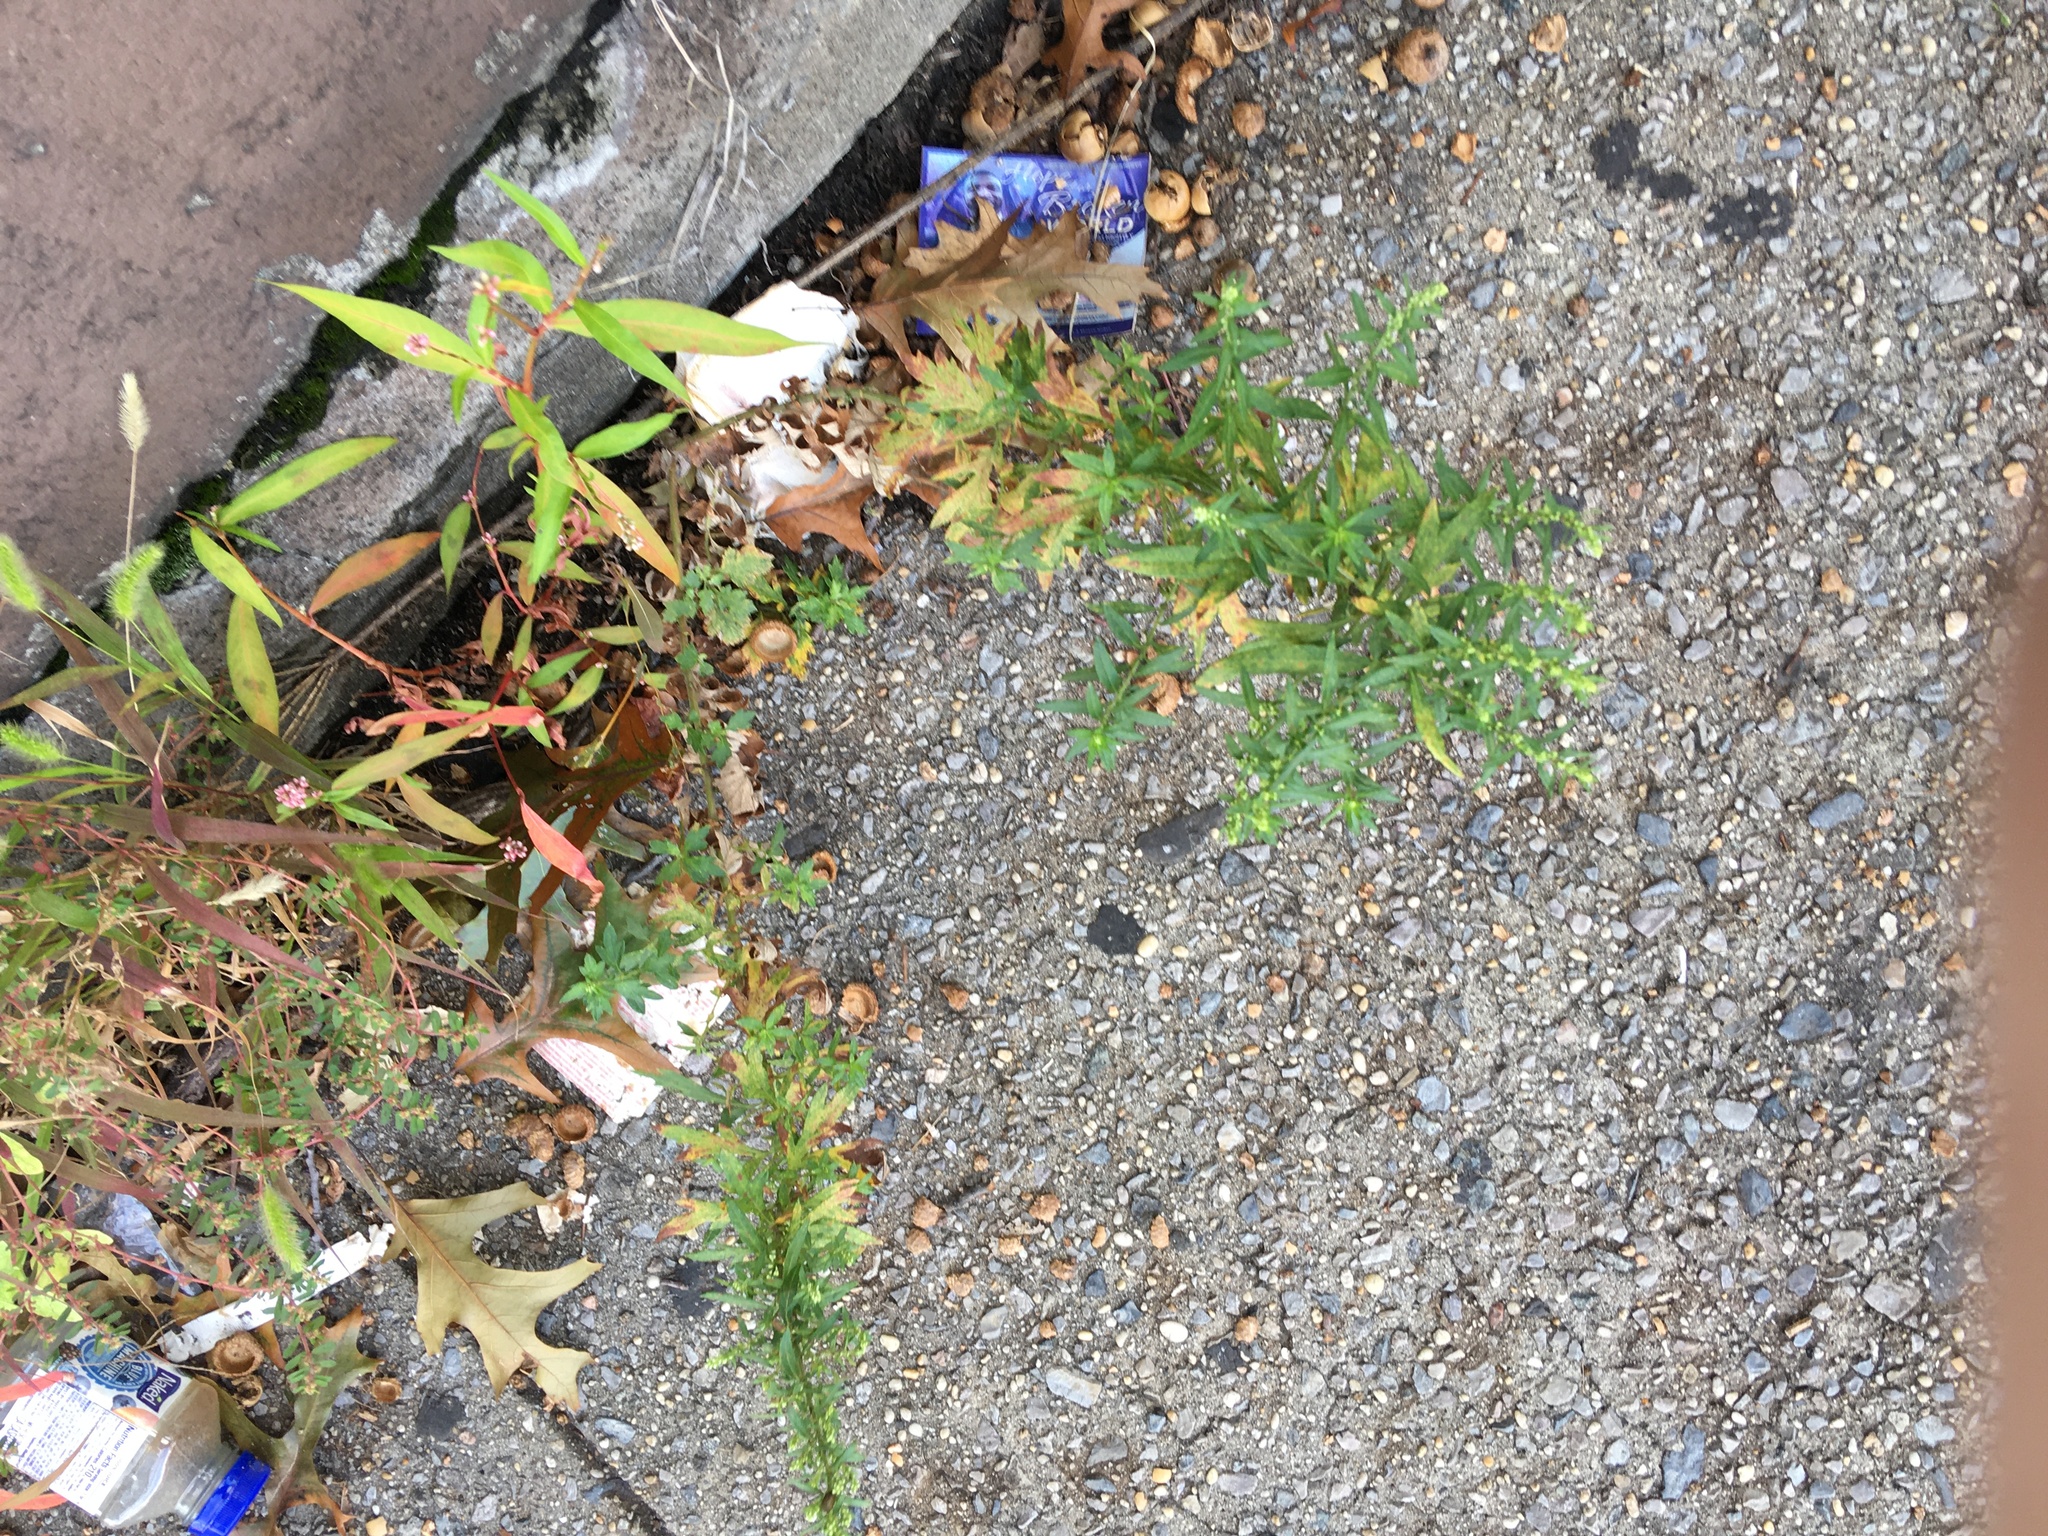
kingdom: Plantae
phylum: Tracheophyta
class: Magnoliopsida
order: Asterales
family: Asteraceae
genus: Artemisia
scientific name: Artemisia vulgaris
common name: Mugwort
